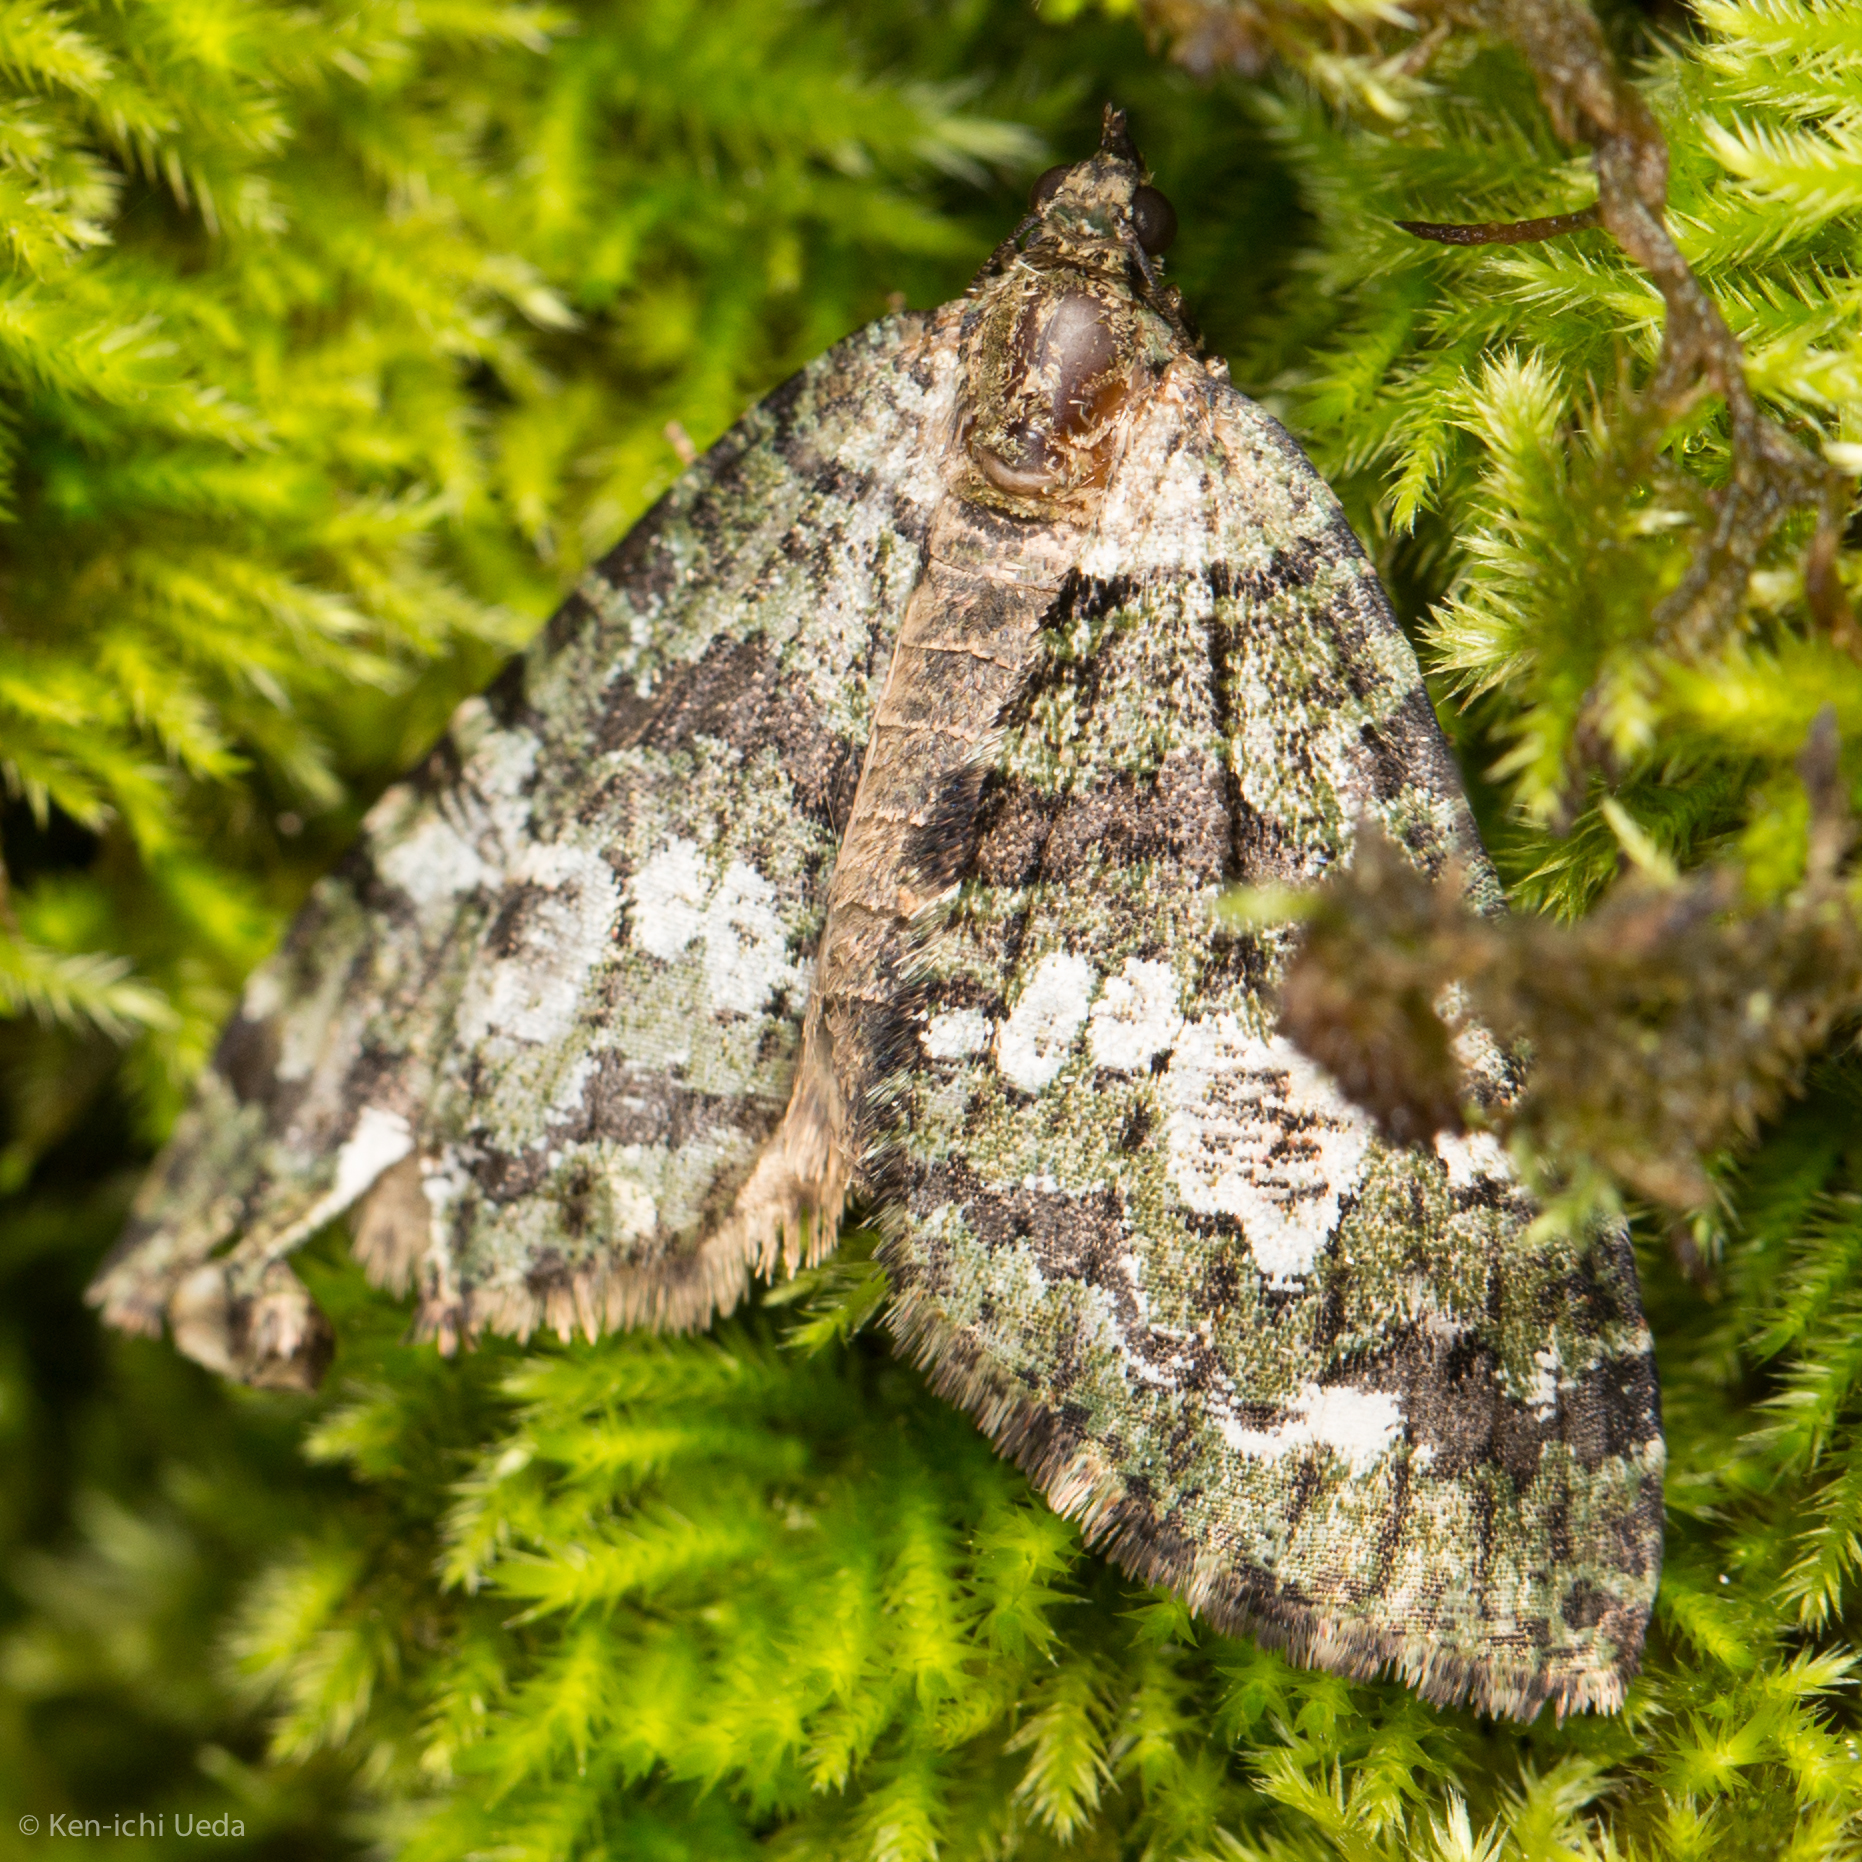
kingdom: Animalia
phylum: Arthropoda
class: Insecta
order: Lepidoptera
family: Geometridae
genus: Hydriomena
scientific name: Hydriomena albifasciata
